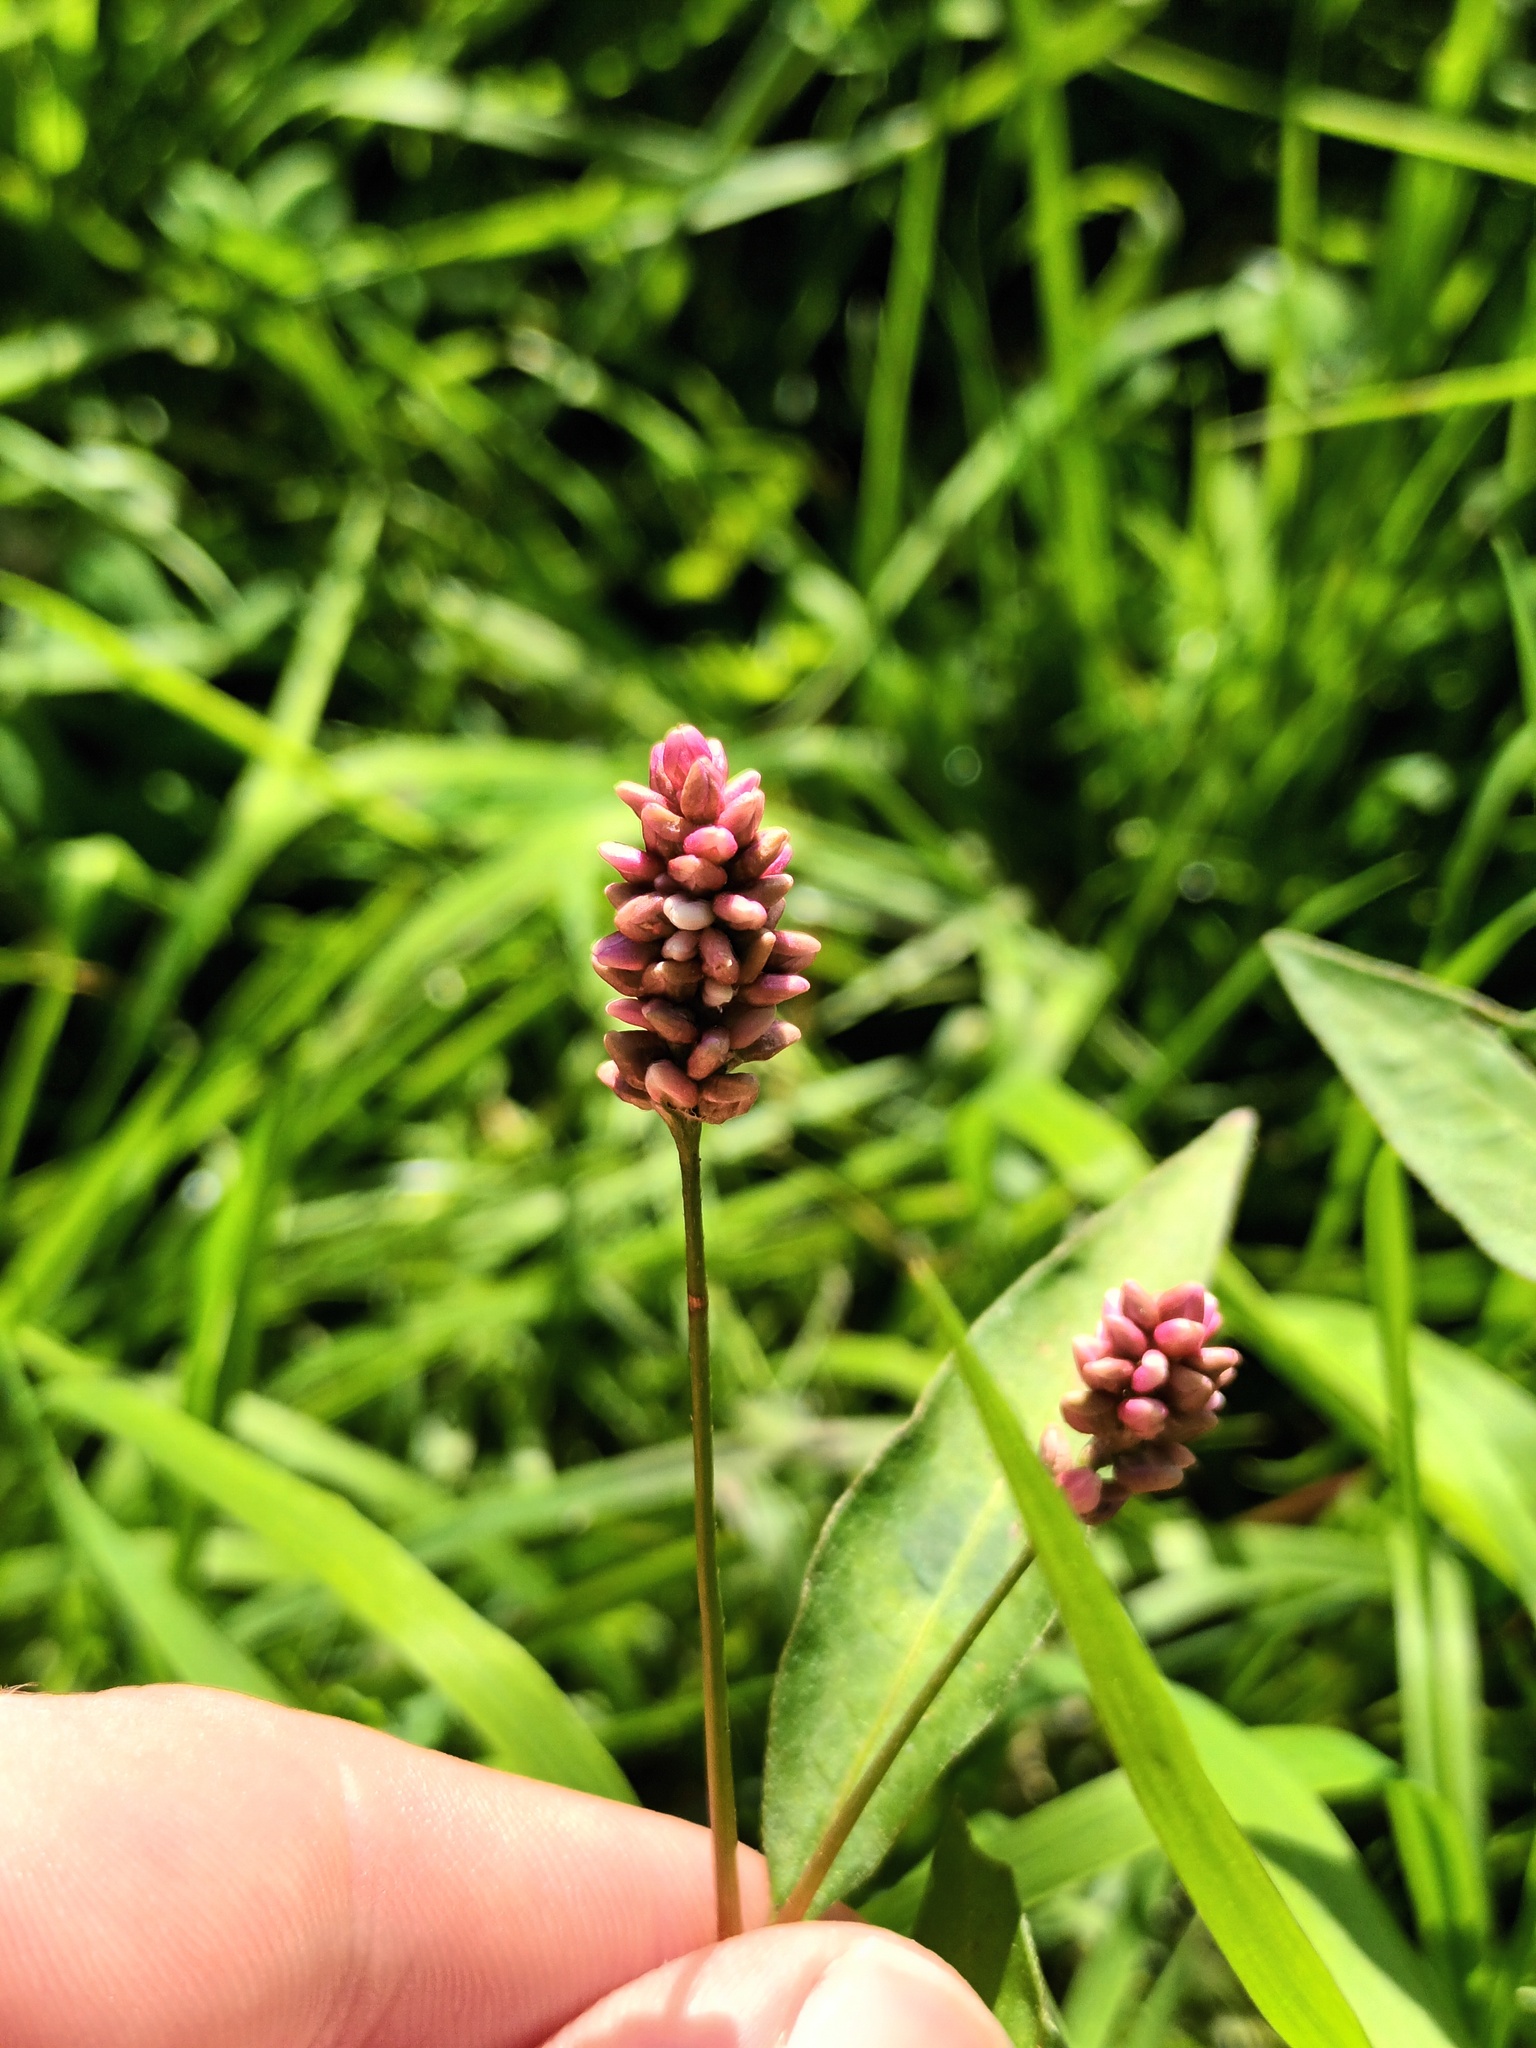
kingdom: Plantae
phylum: Tracheophyta
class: Magnoliopsida
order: Caryophyllales
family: Polygonaceae
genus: Persicaria
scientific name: Persicaria maculosa
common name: Redshank
